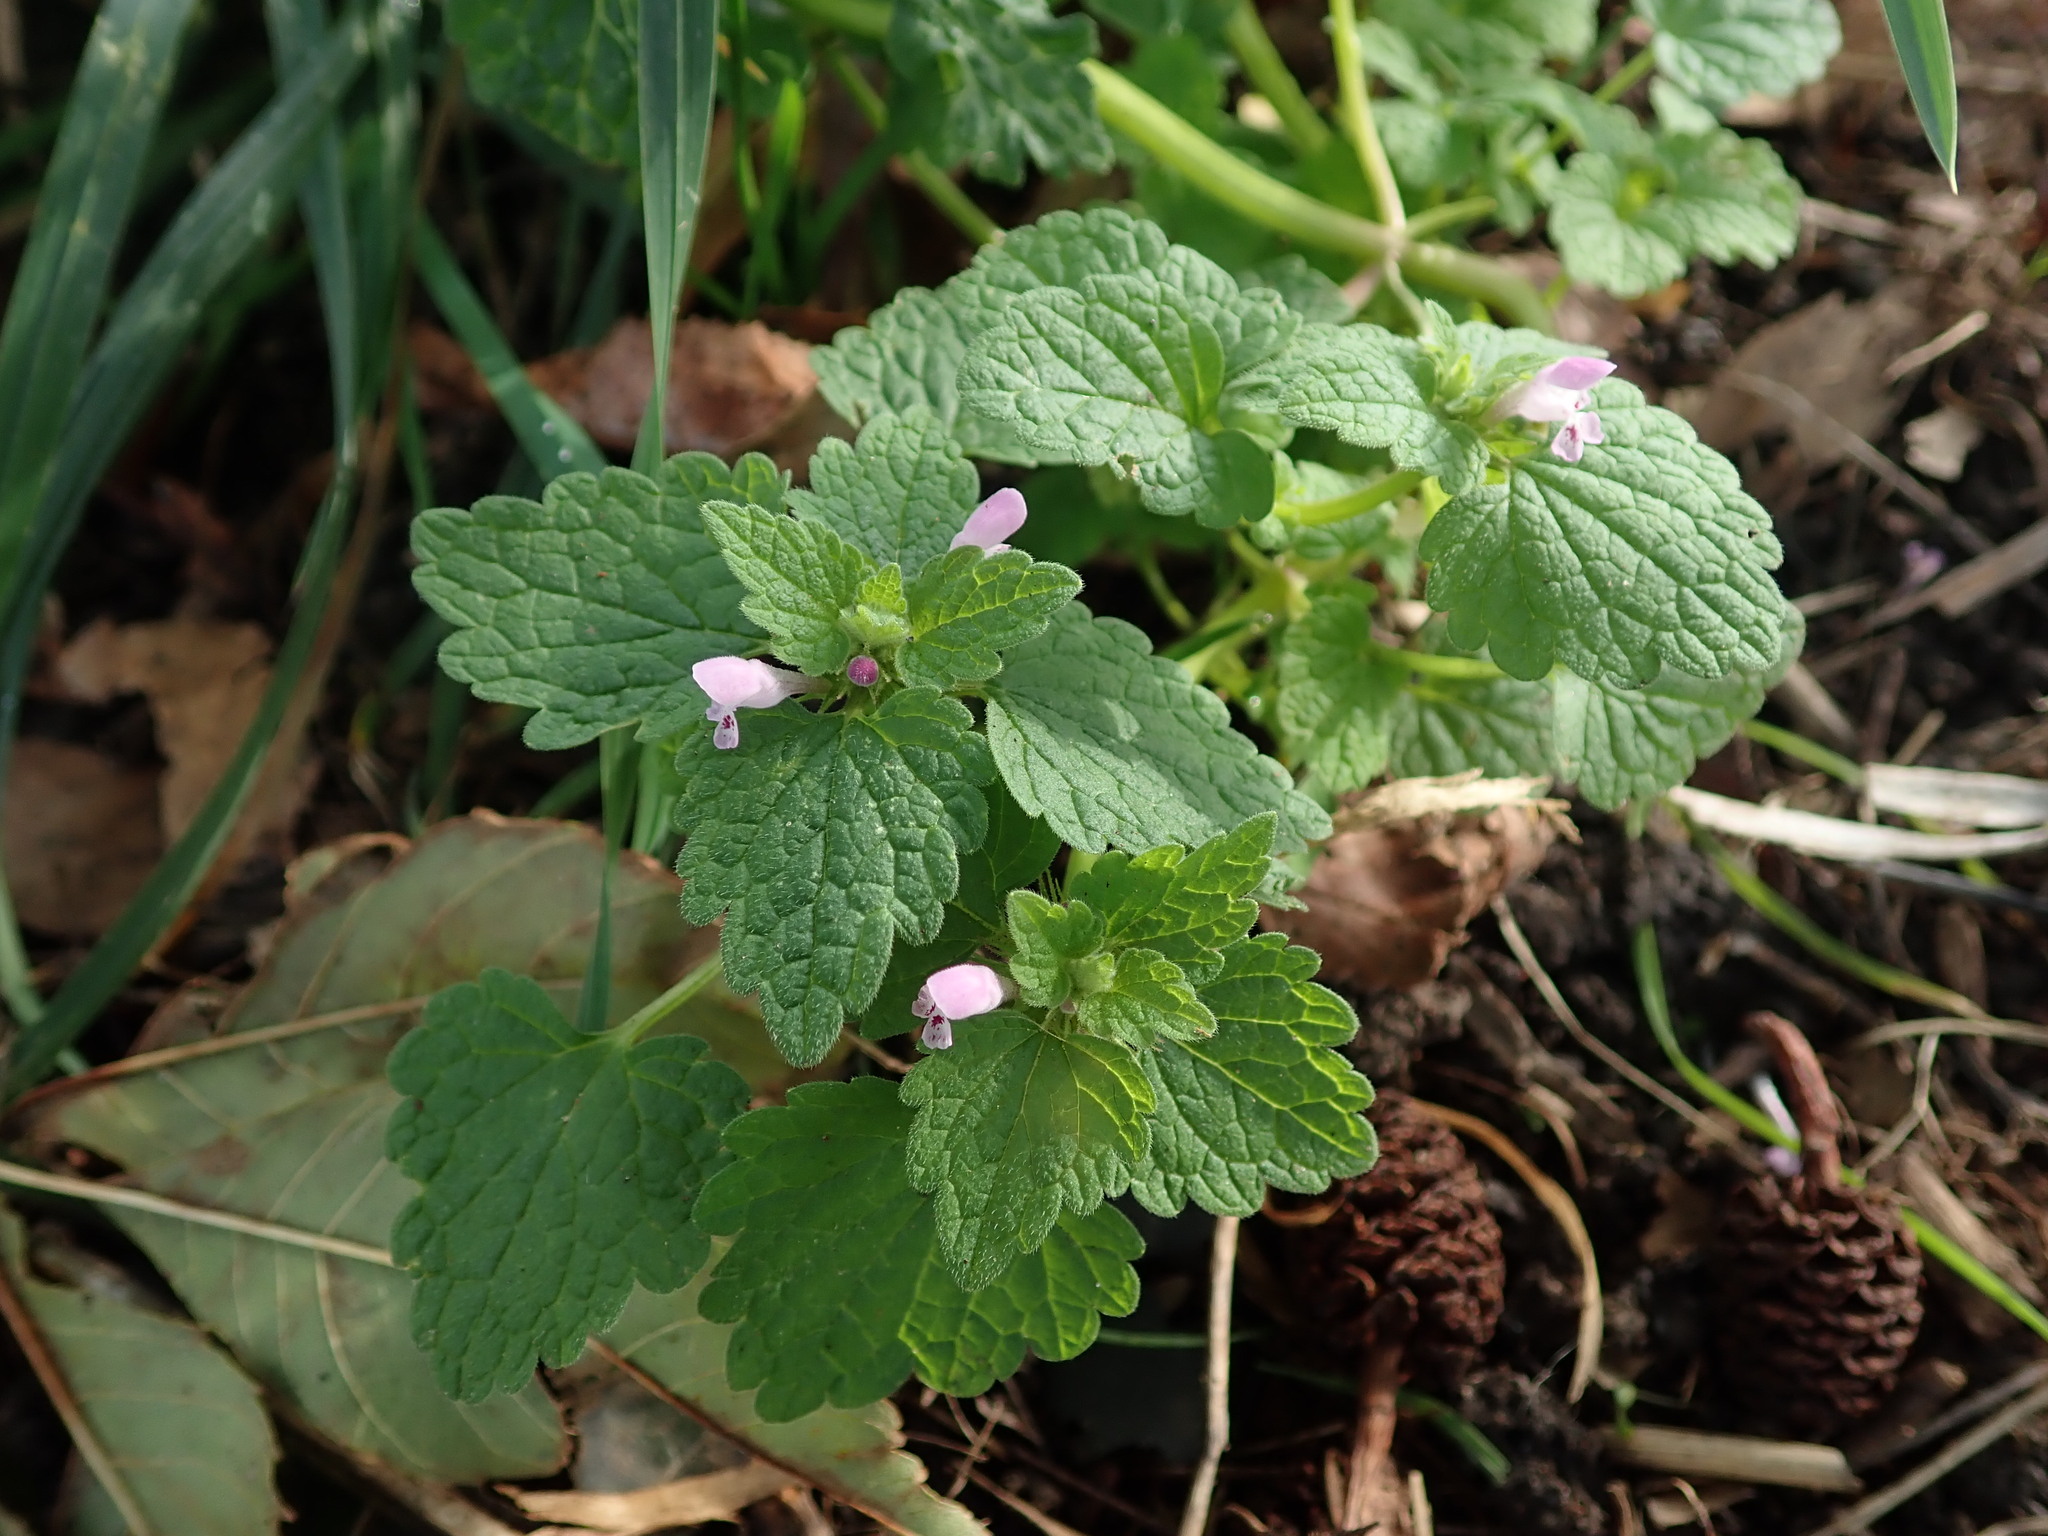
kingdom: Plantae
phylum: Tracheophyta
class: Magnoliopsida
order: Lamiales
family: Lamiaceae
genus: Lamium
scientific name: Lamium purpureum
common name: Red dead-nettle
